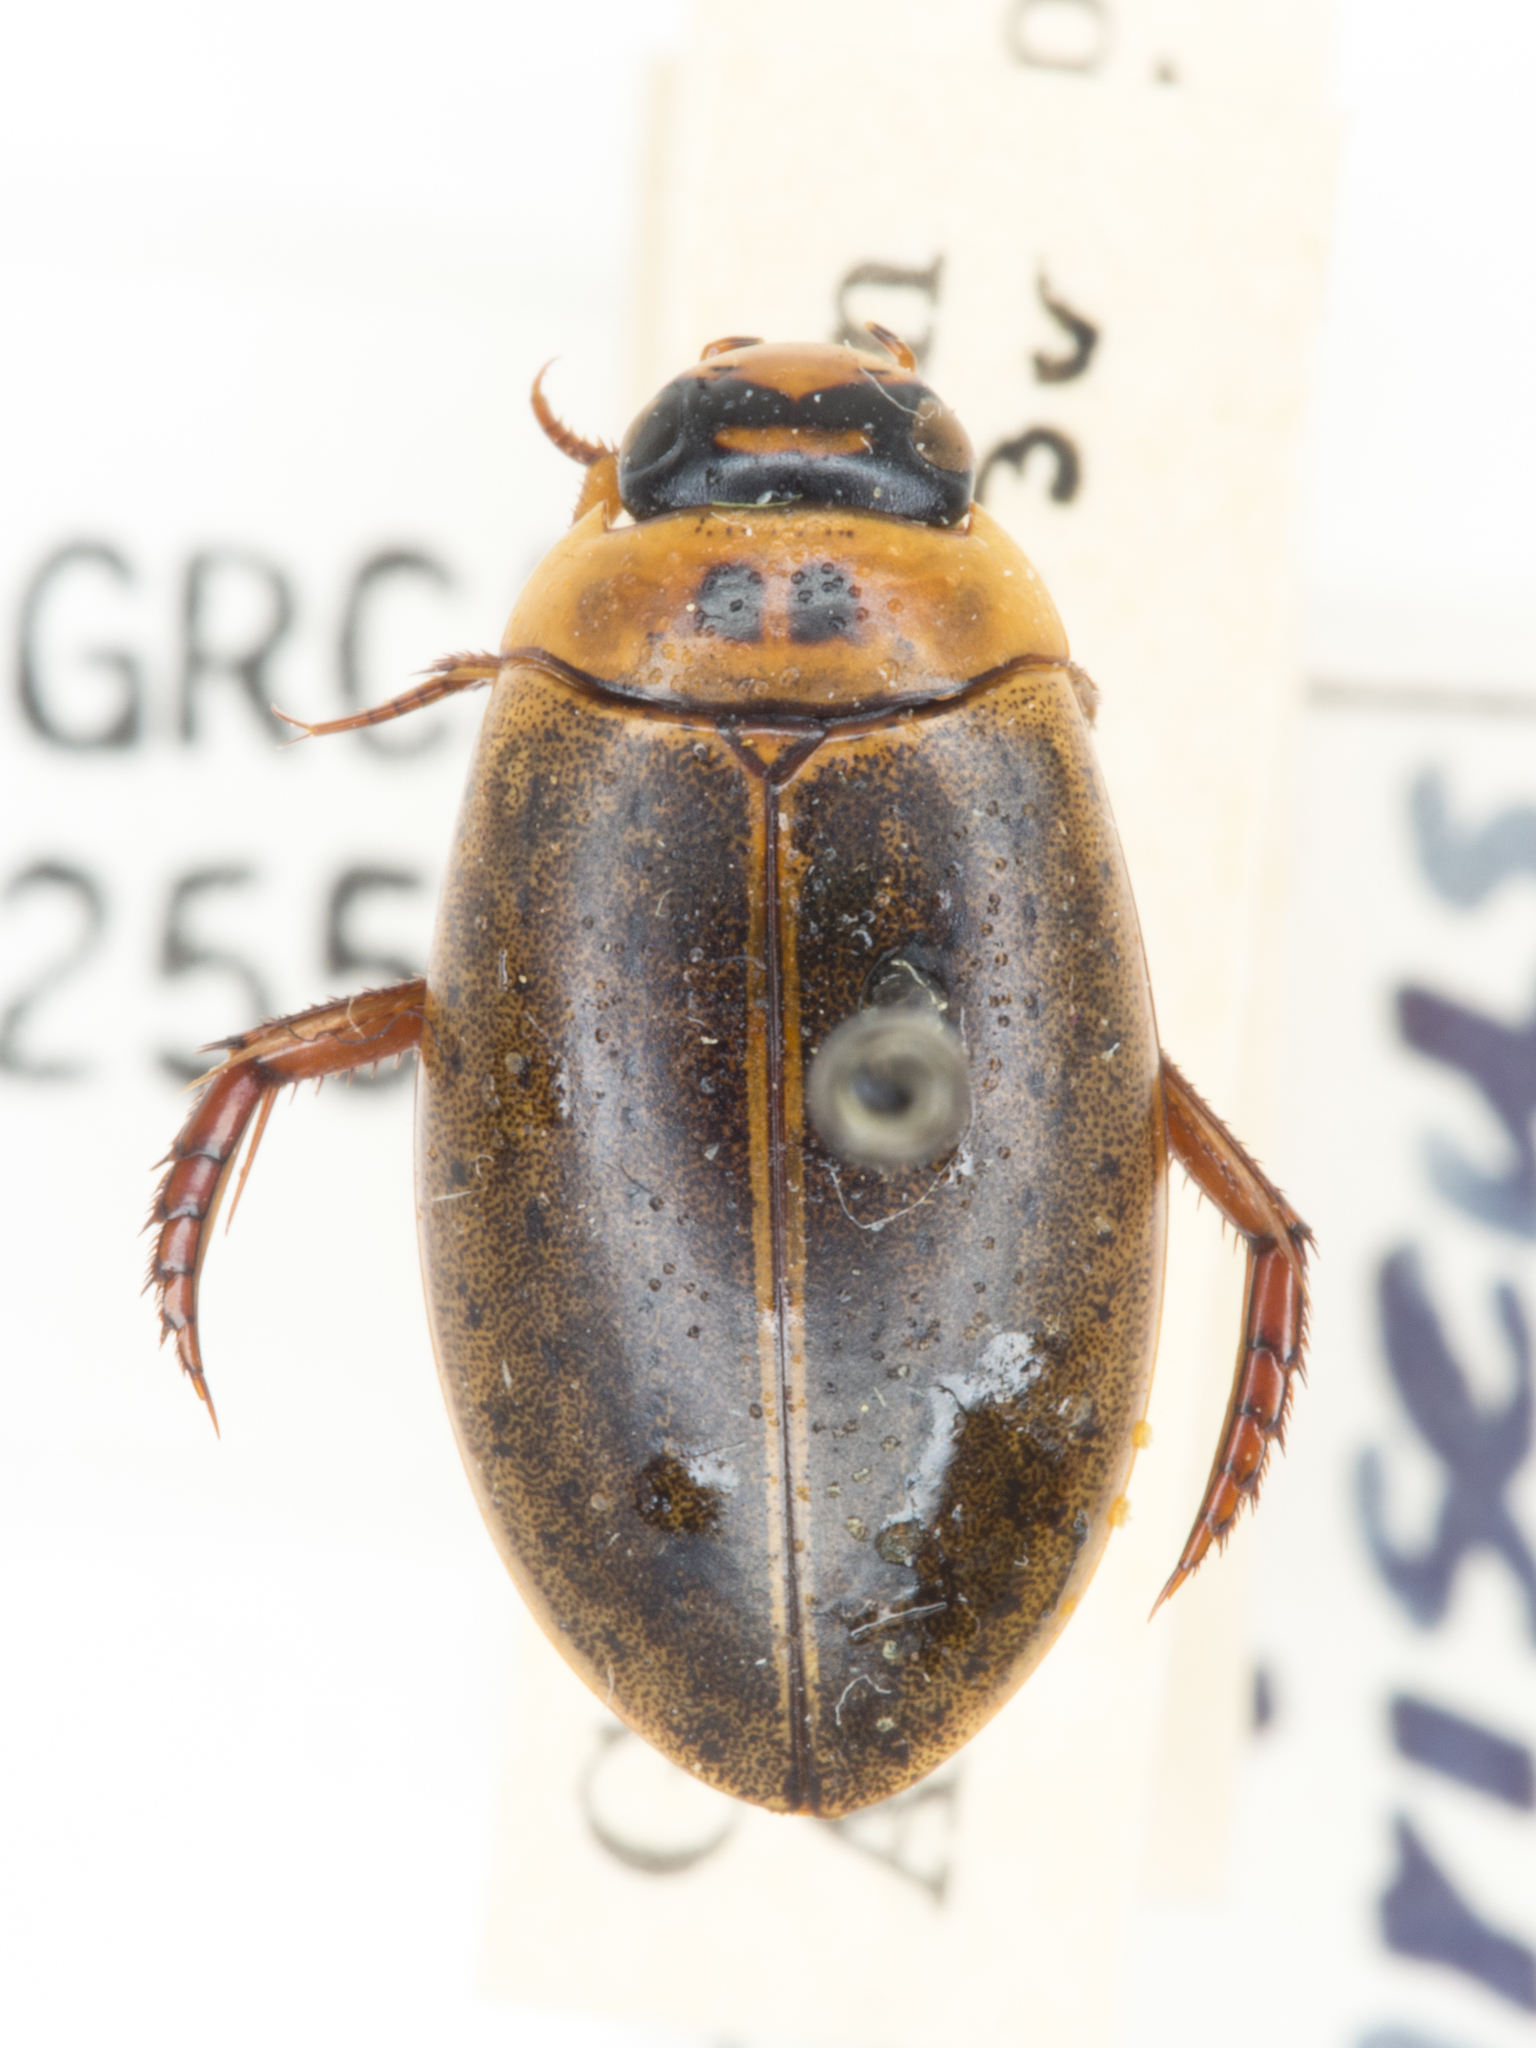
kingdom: Animalia
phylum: Arthropoda
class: Insecta
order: Coleoptera
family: Dytiscidae
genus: Rhantus
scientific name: Rhantus gutticollis
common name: Predaceous diving beetle
